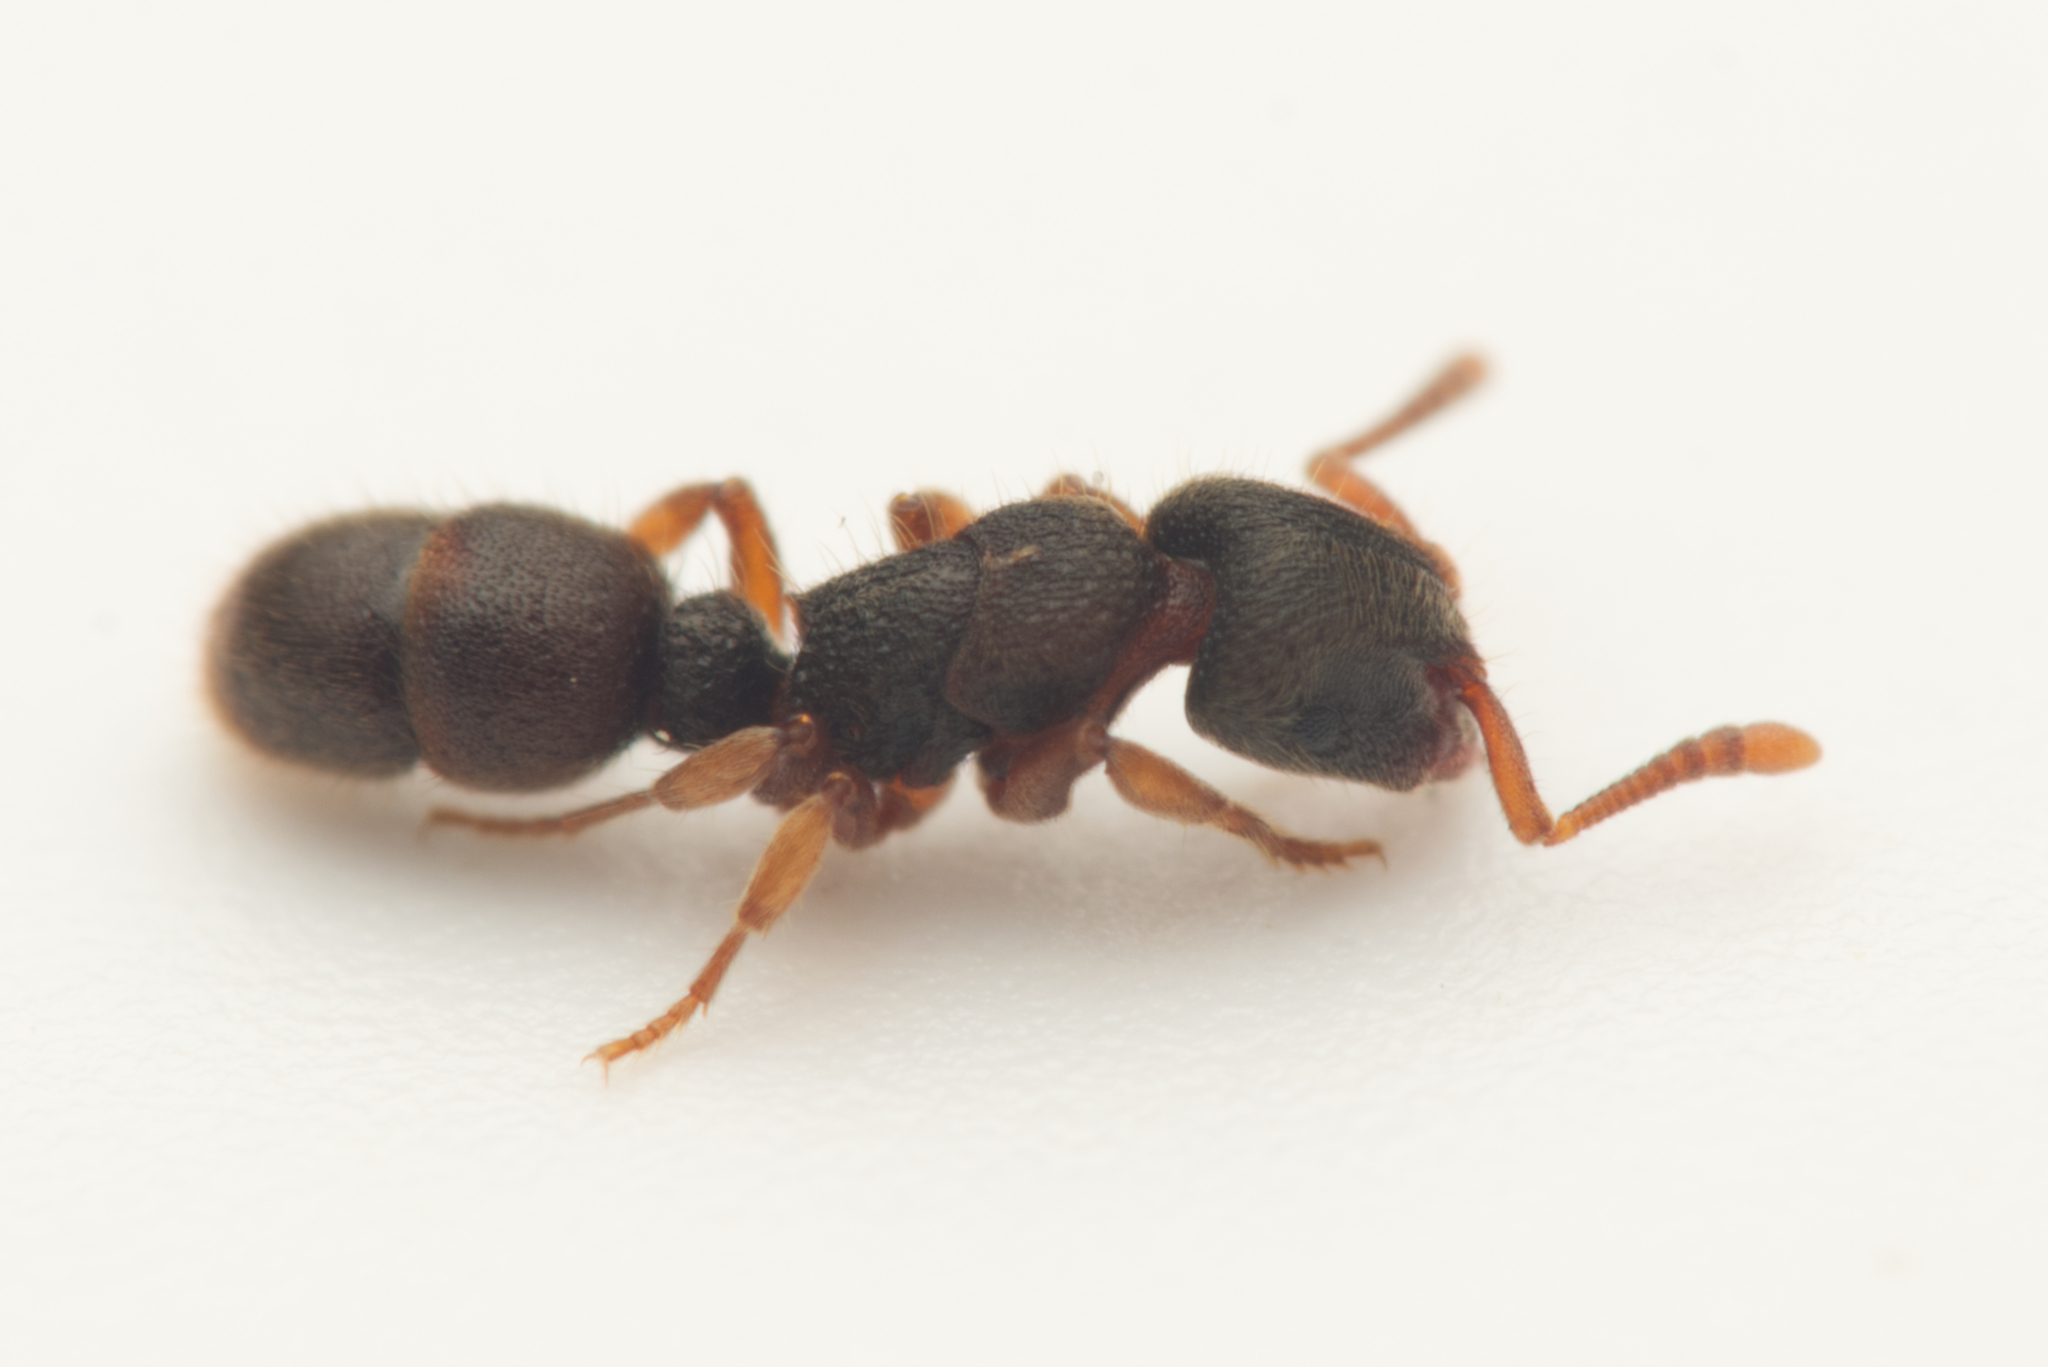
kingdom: Animalia
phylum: Arthropoda
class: Insecta
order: Hymenoptera
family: Formicidae
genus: Heteroponera
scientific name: Heteroponera imbellis
